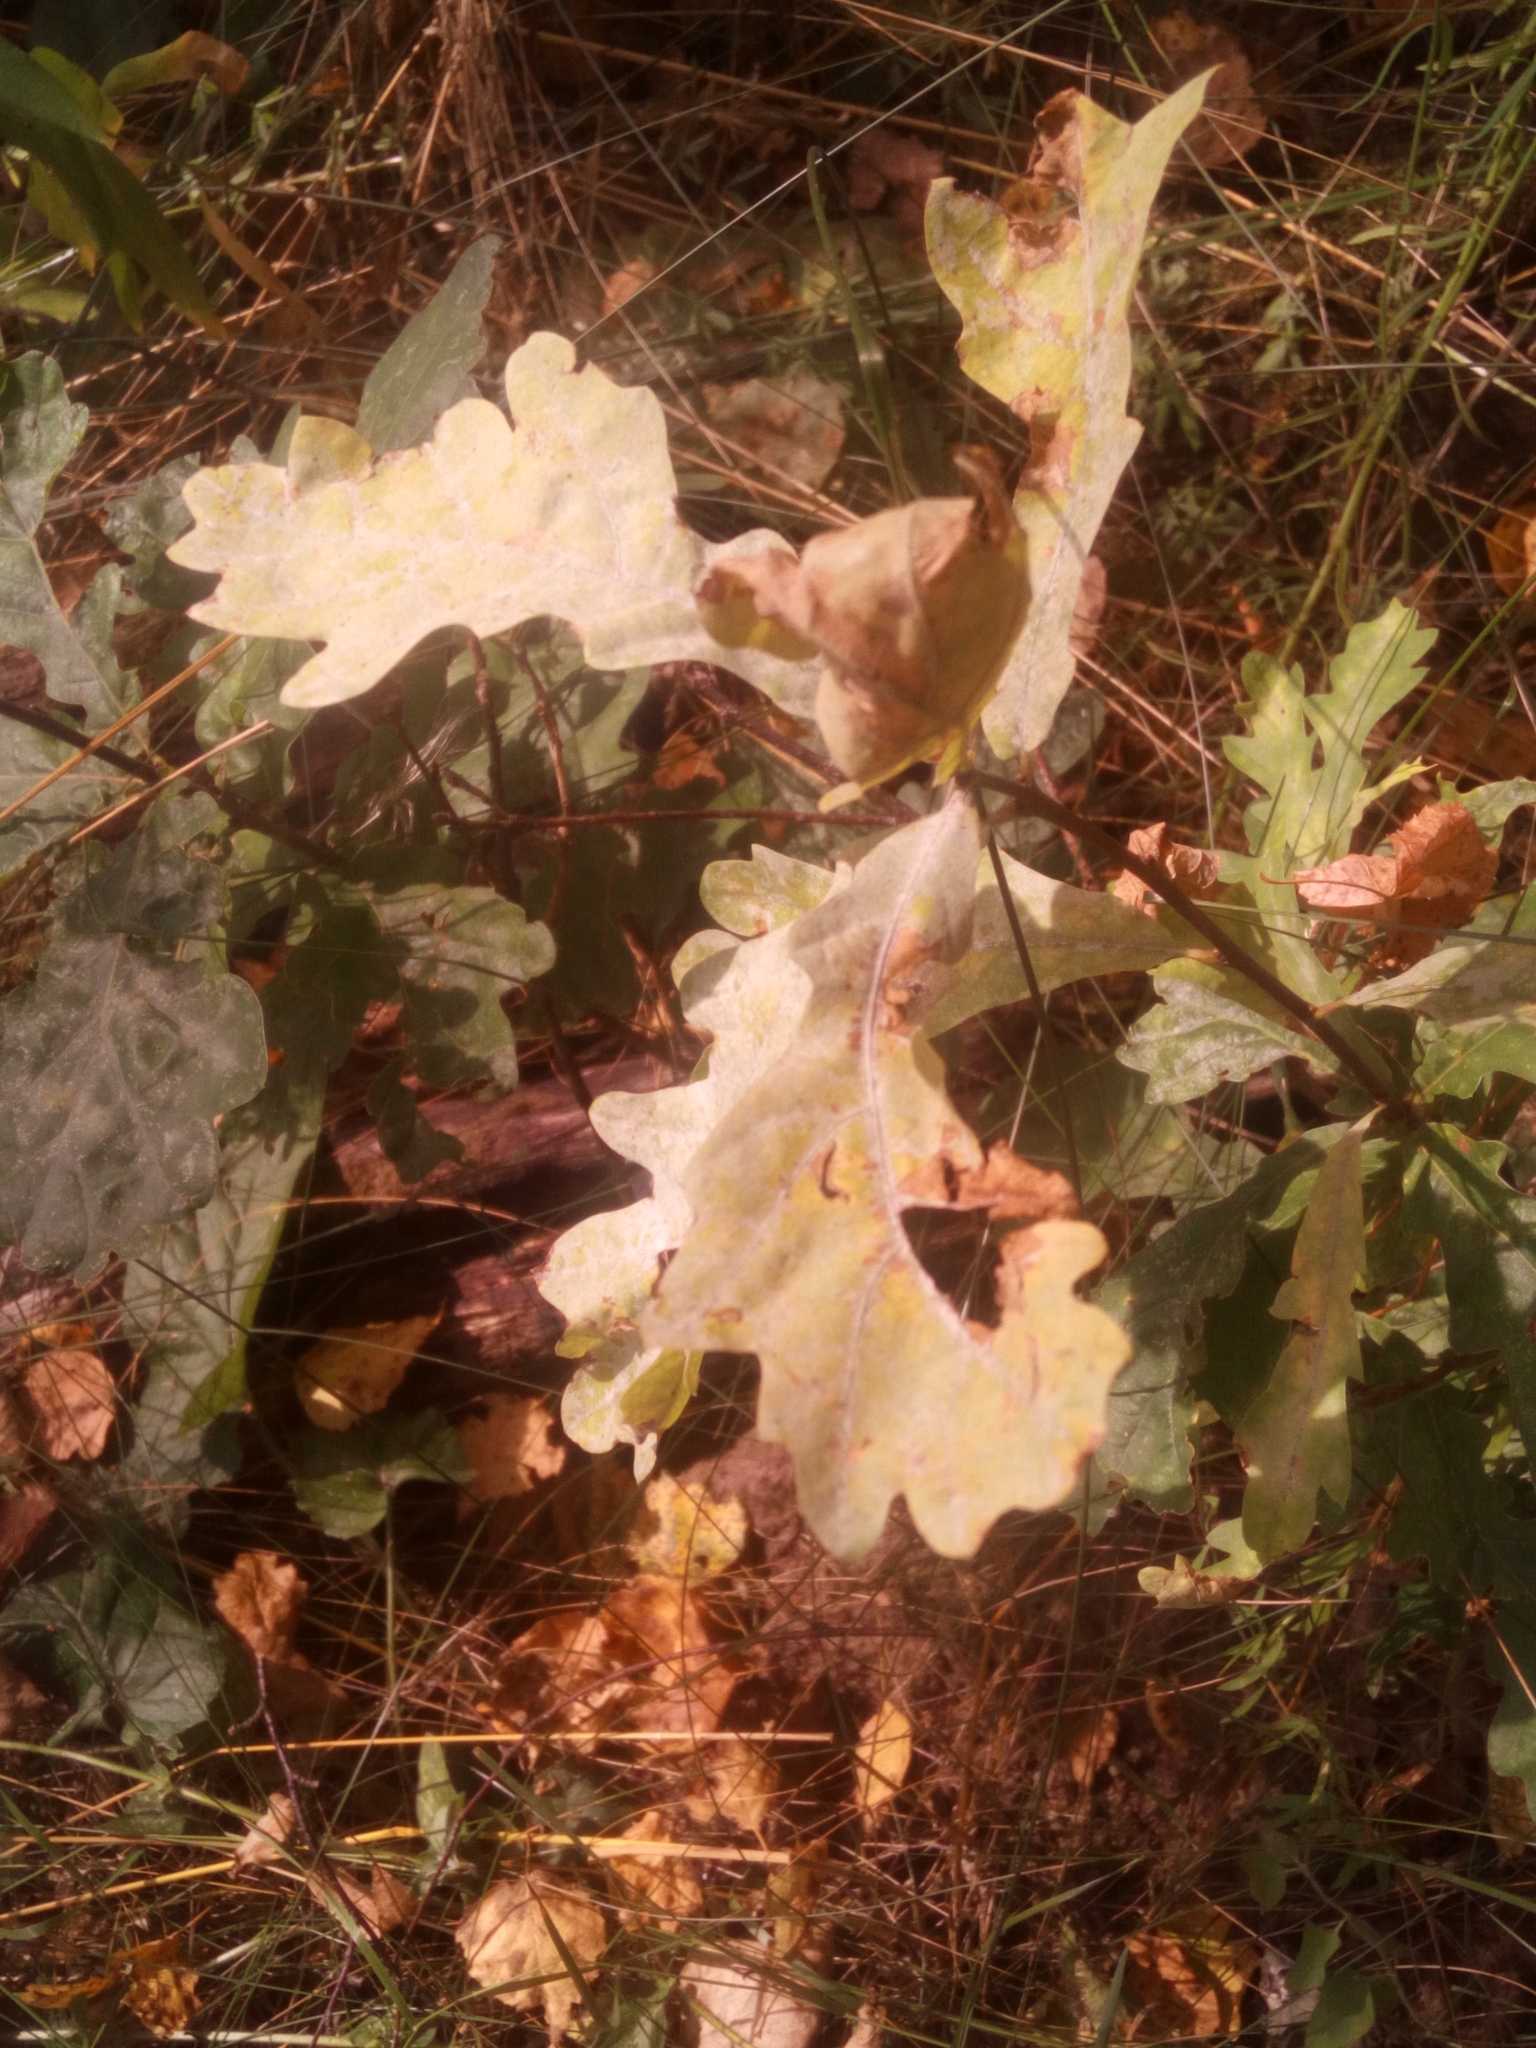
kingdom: Plantae
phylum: Tracheophyta
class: Magnoliopsida
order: Fagales
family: Fagaceae
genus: Quercus
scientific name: Quercus robur
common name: Pedunculate oak
